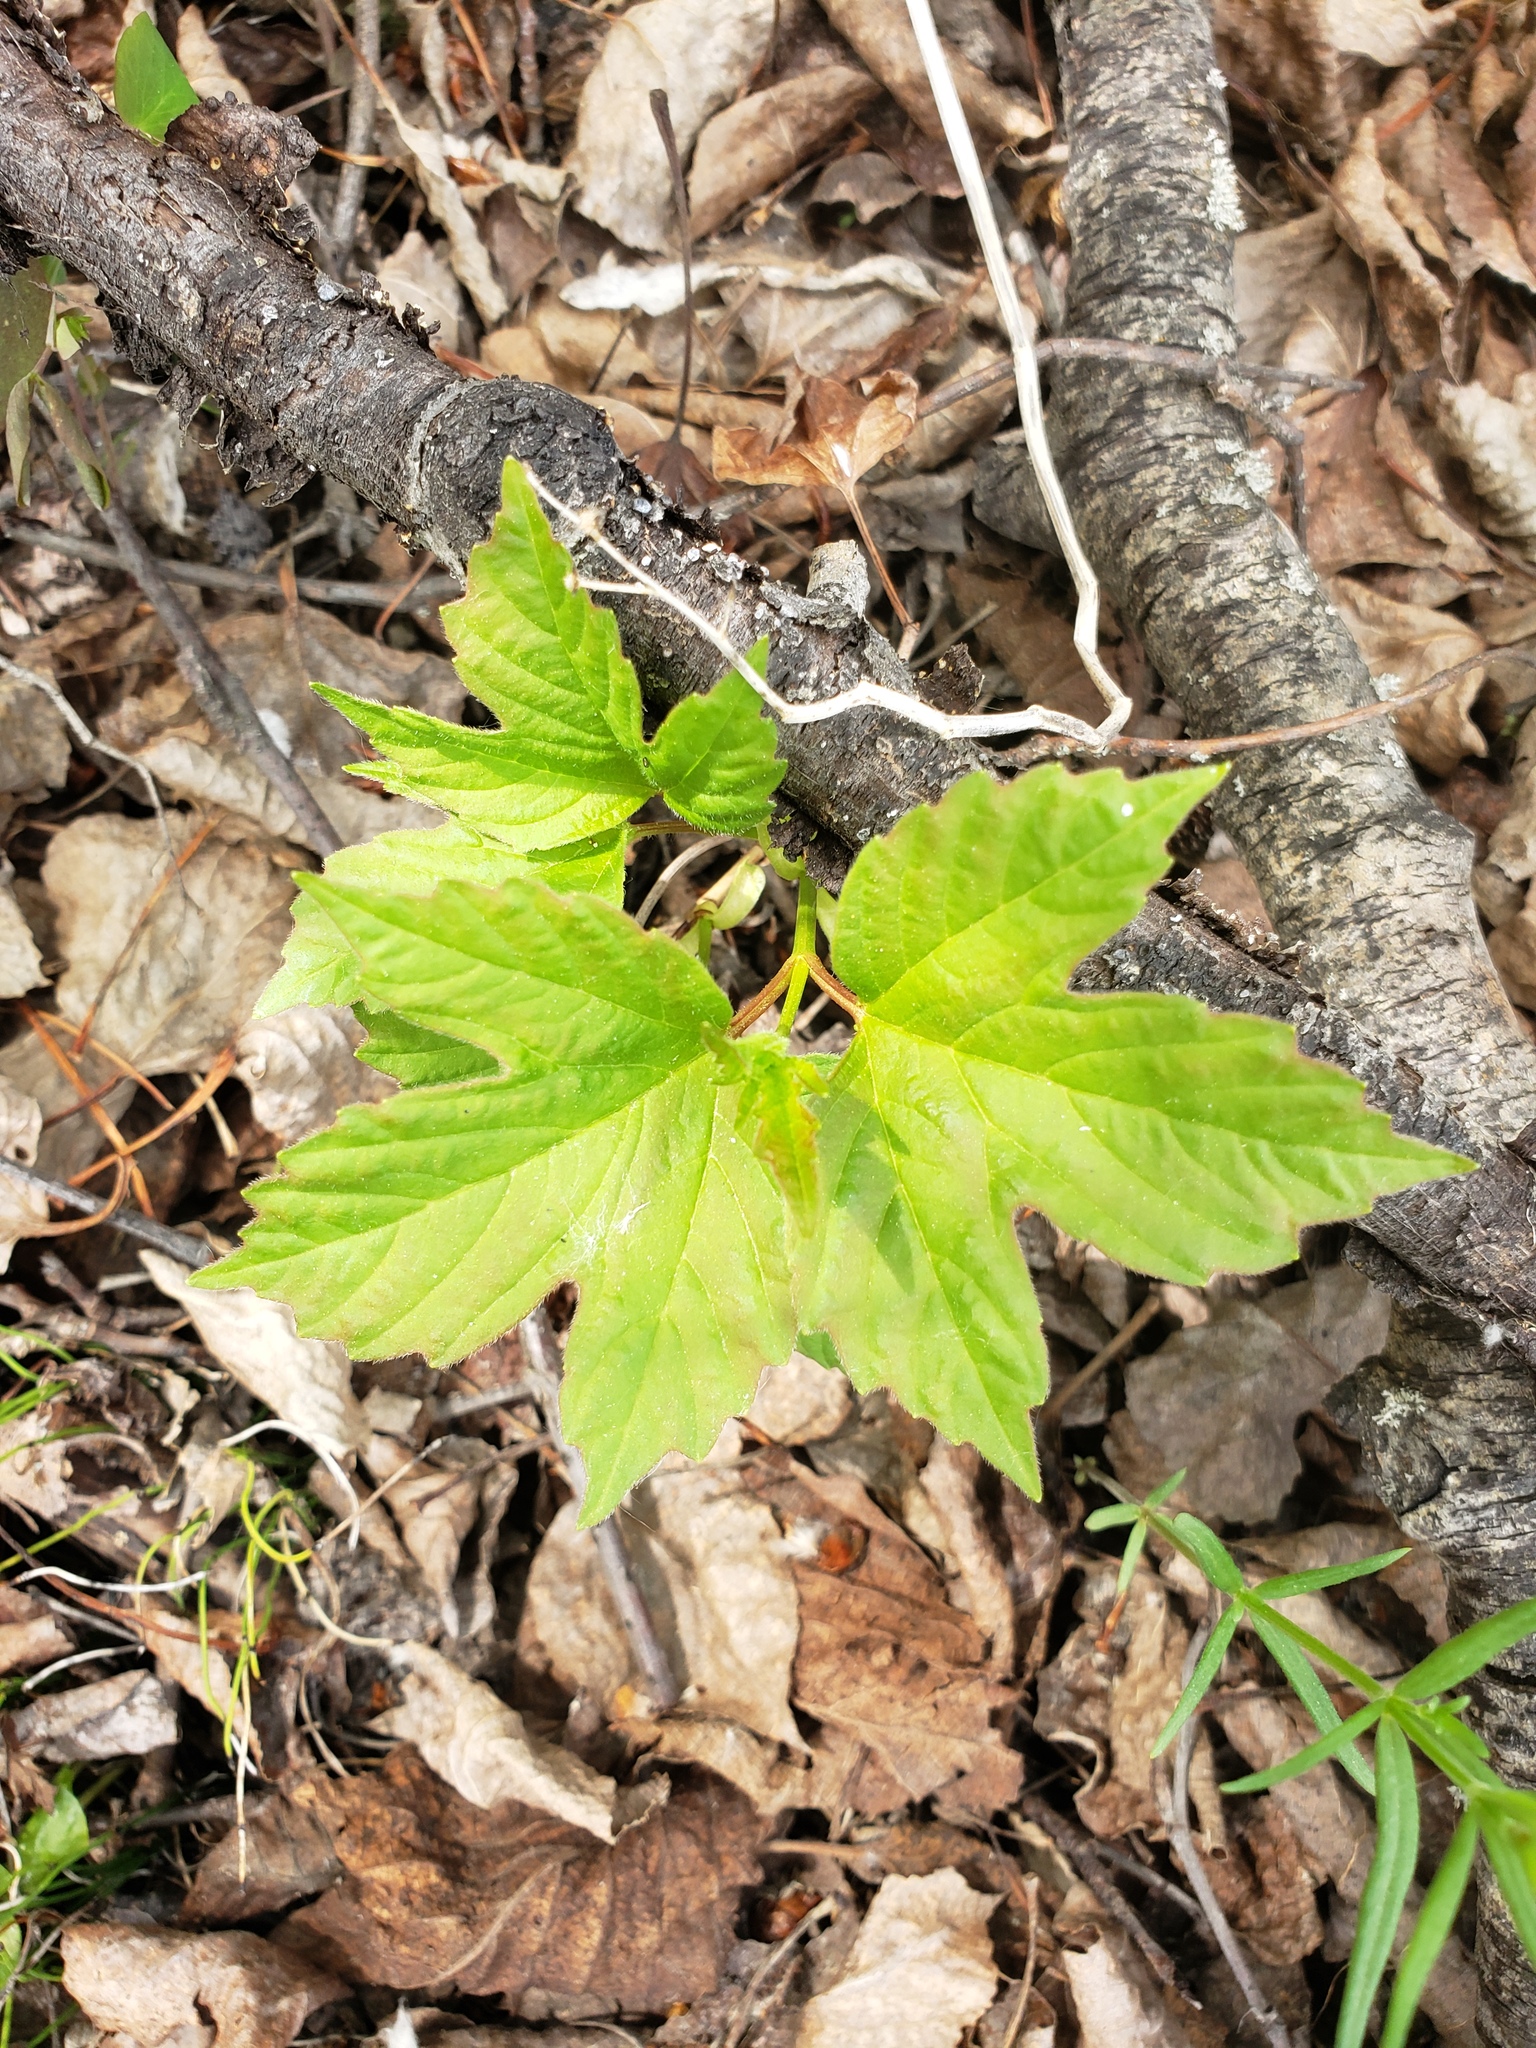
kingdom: Plantae
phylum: Tracheophyta
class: Magnoliopsida
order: Dipsacales
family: Viburnaceae
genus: Viburnum
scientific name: Viburnum opulus
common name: Guelder-rose
